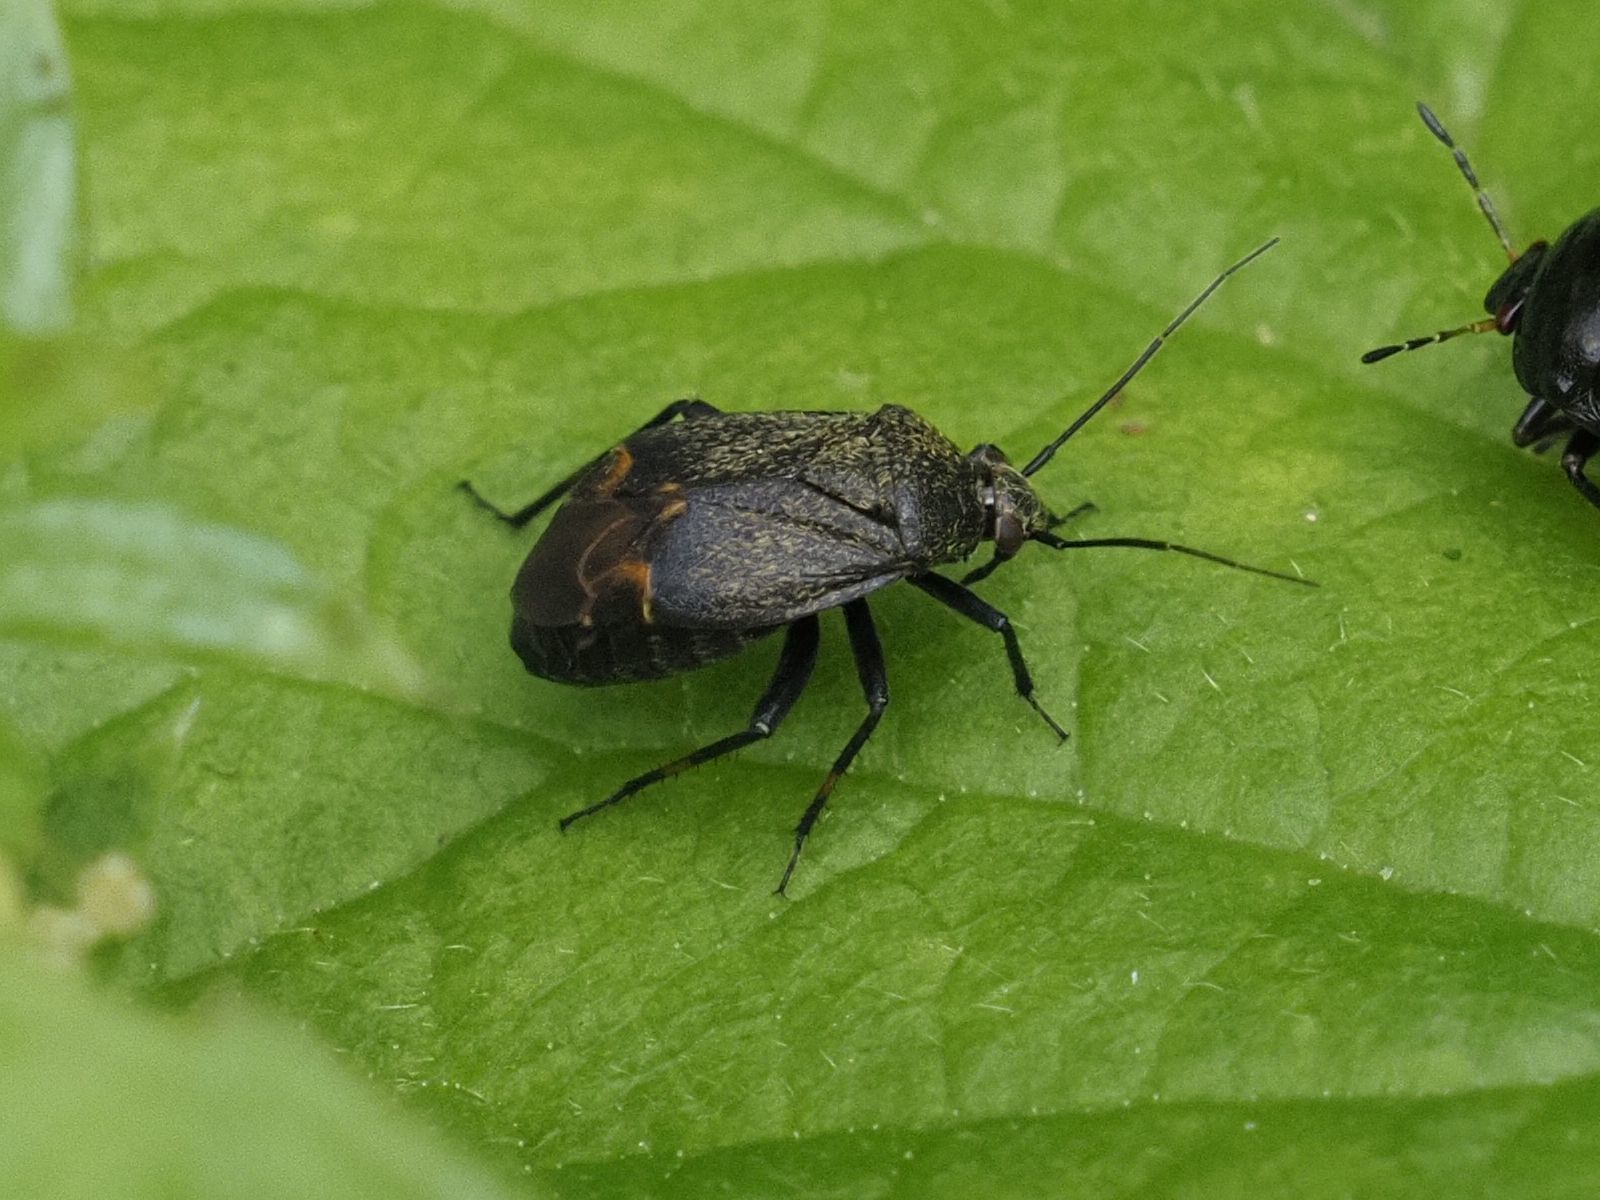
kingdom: Animalia
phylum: Arthropoda
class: Insecta
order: Hemiptera
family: Miridae
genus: Polymerus
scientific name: Polymerus nigritus
